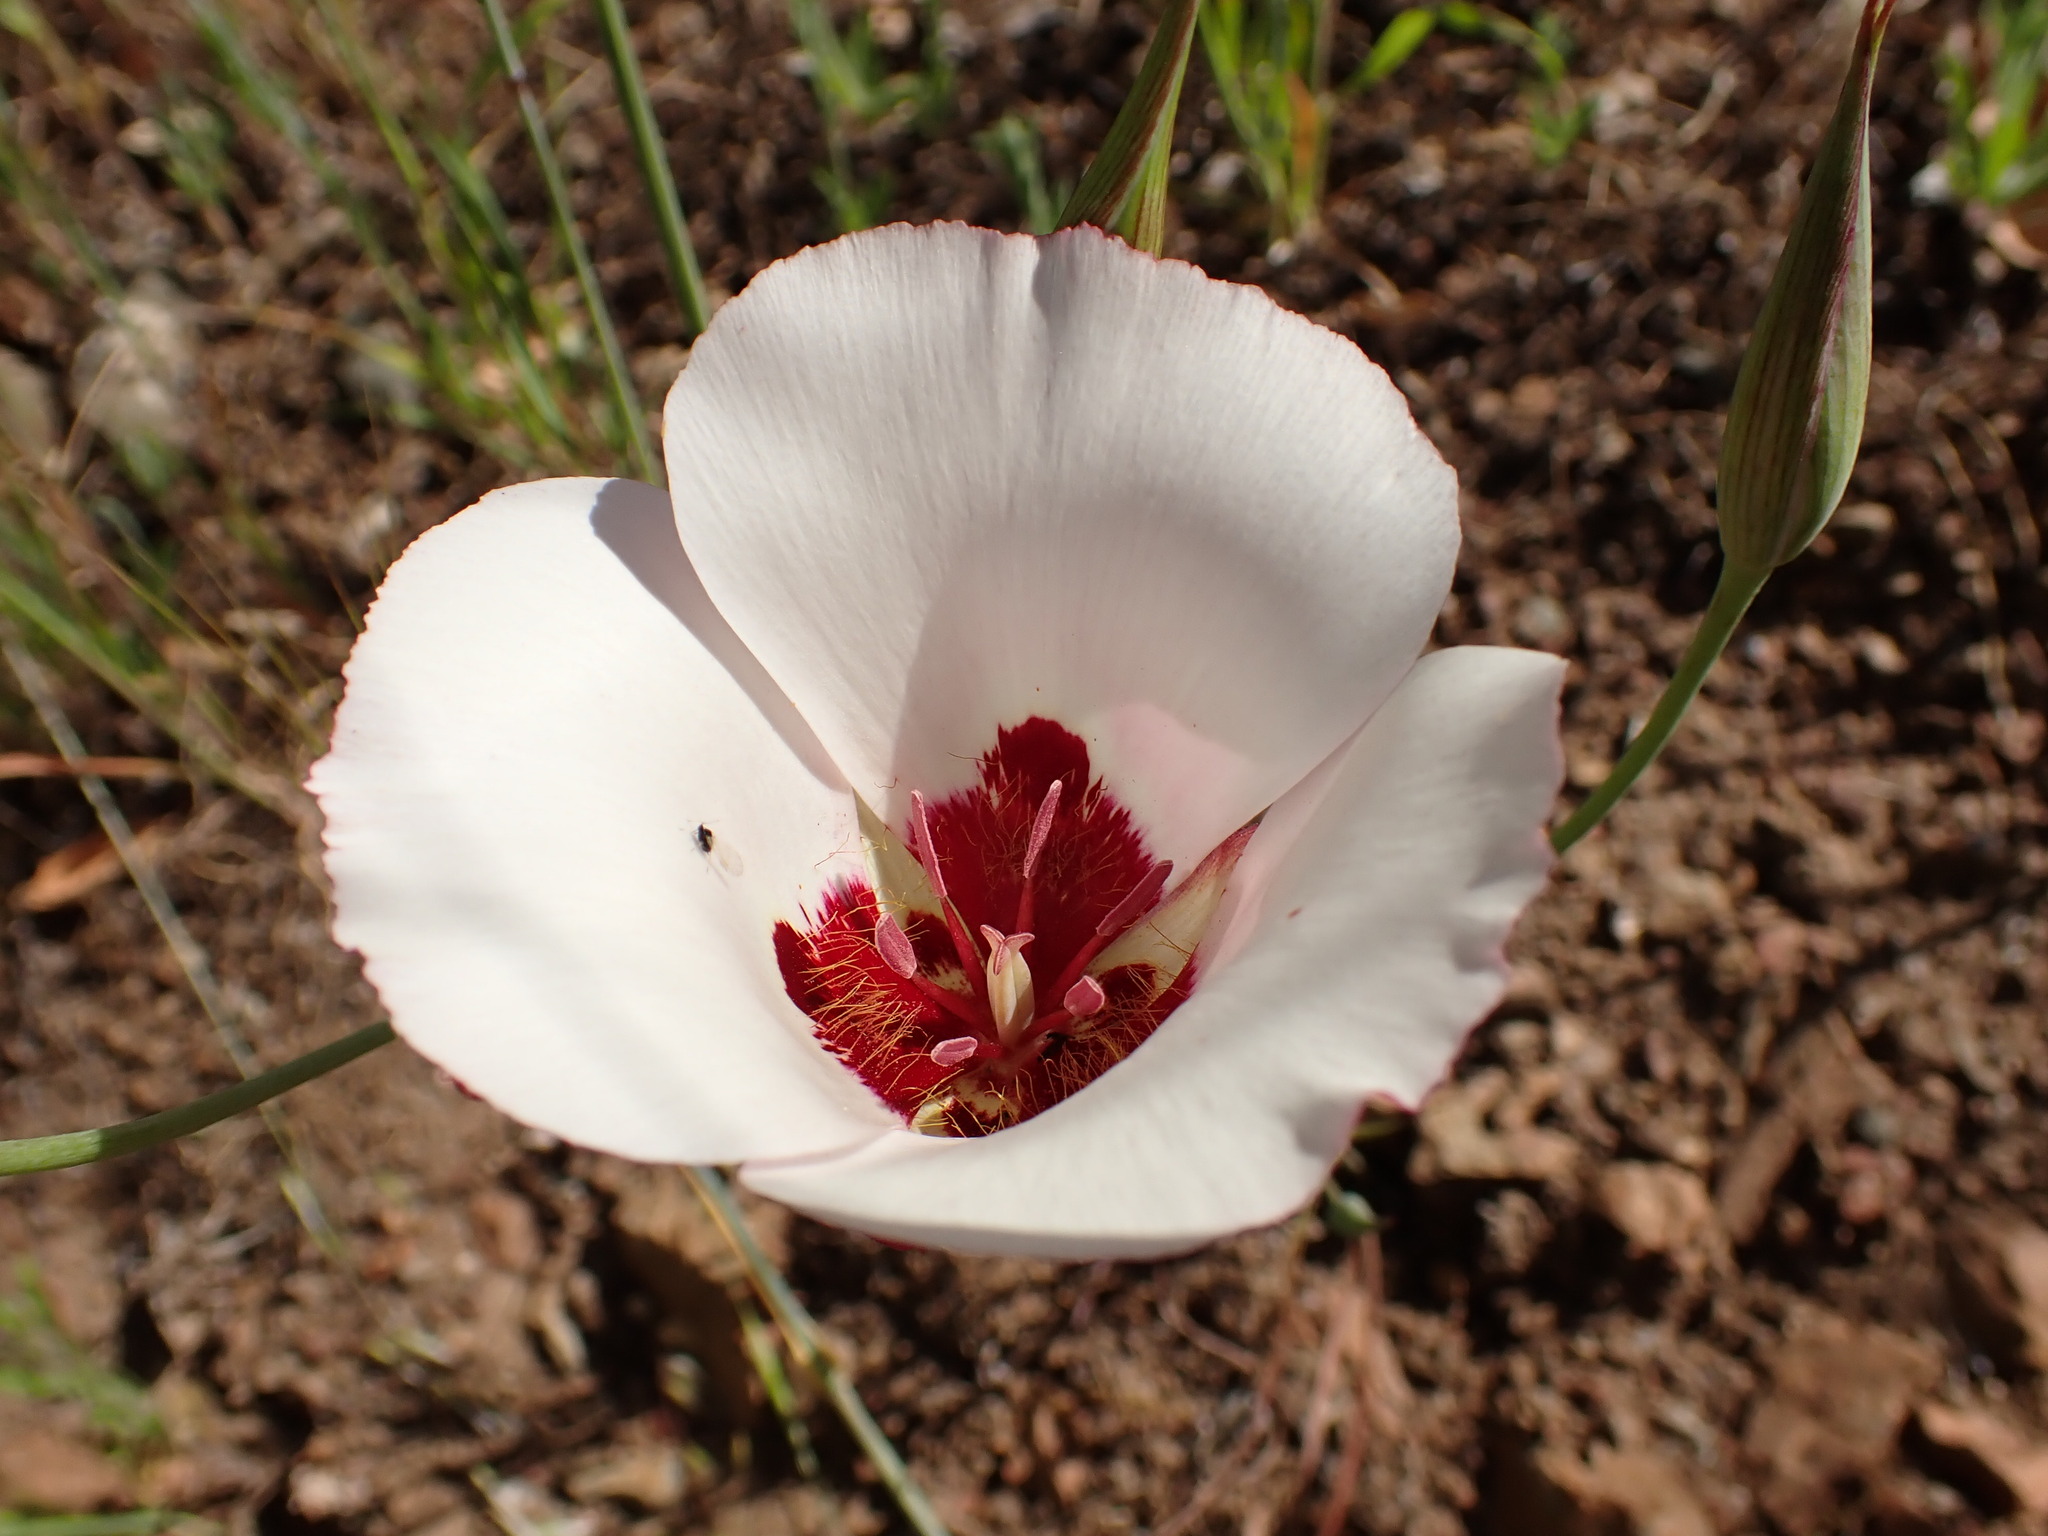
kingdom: Plantae
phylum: Tracheophyta
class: Liliopsida
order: Liliales
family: Liliaceae
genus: Calochortus
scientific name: Calochortus simulans
